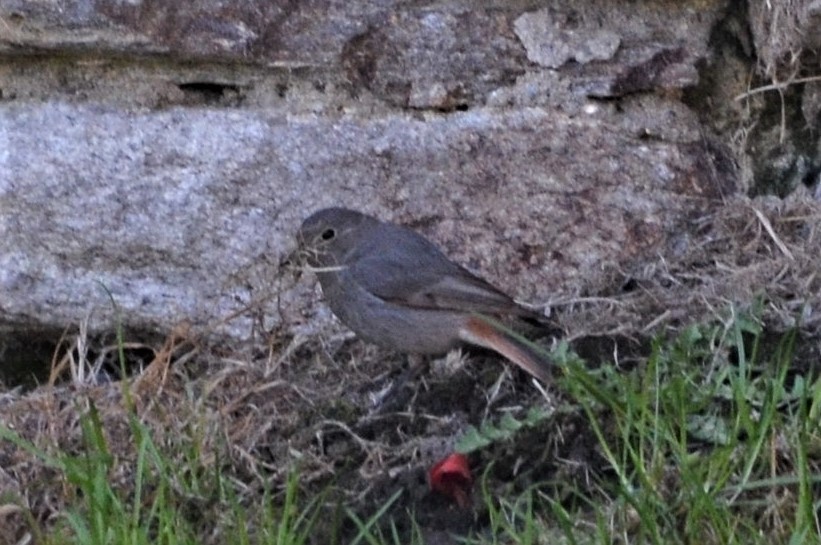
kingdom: Animalia
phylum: Chordata
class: Aves
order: Passeriformes
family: Muscicapidae
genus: Phoenicurus
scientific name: Phoenicurus ochruros
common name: Black redstart
